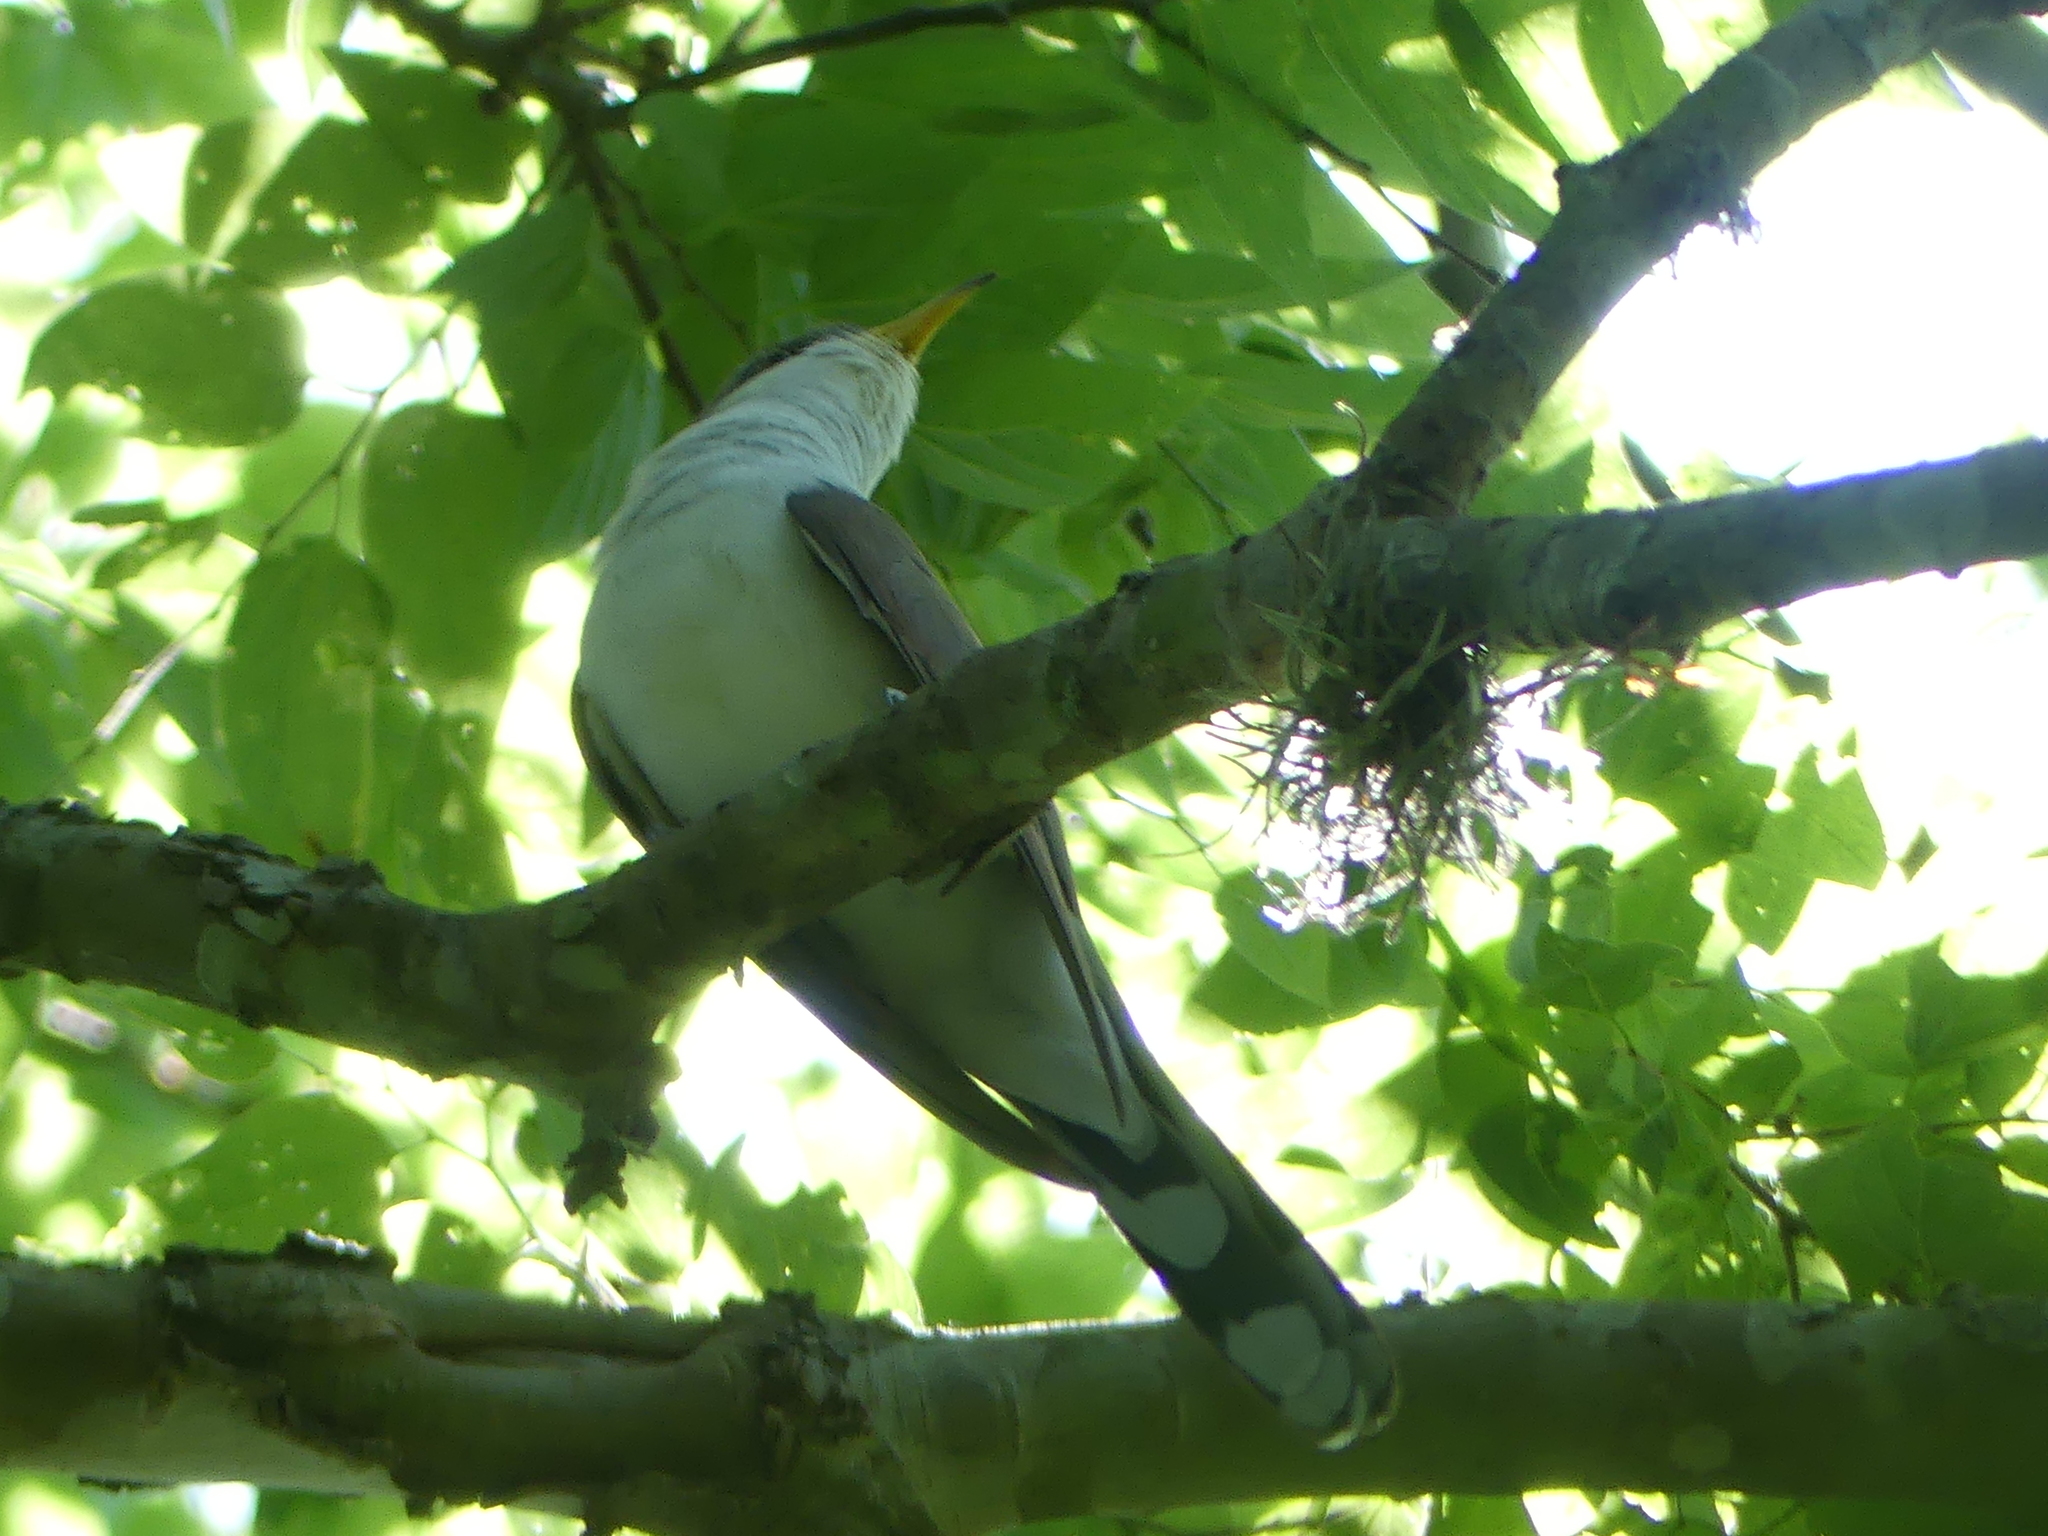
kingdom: Animalia
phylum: Chordata
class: Aves
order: Cuculiformes
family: Cuculidae
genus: Coccyzus
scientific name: Coccyzus americanus
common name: Yellow-billed cuckoo
